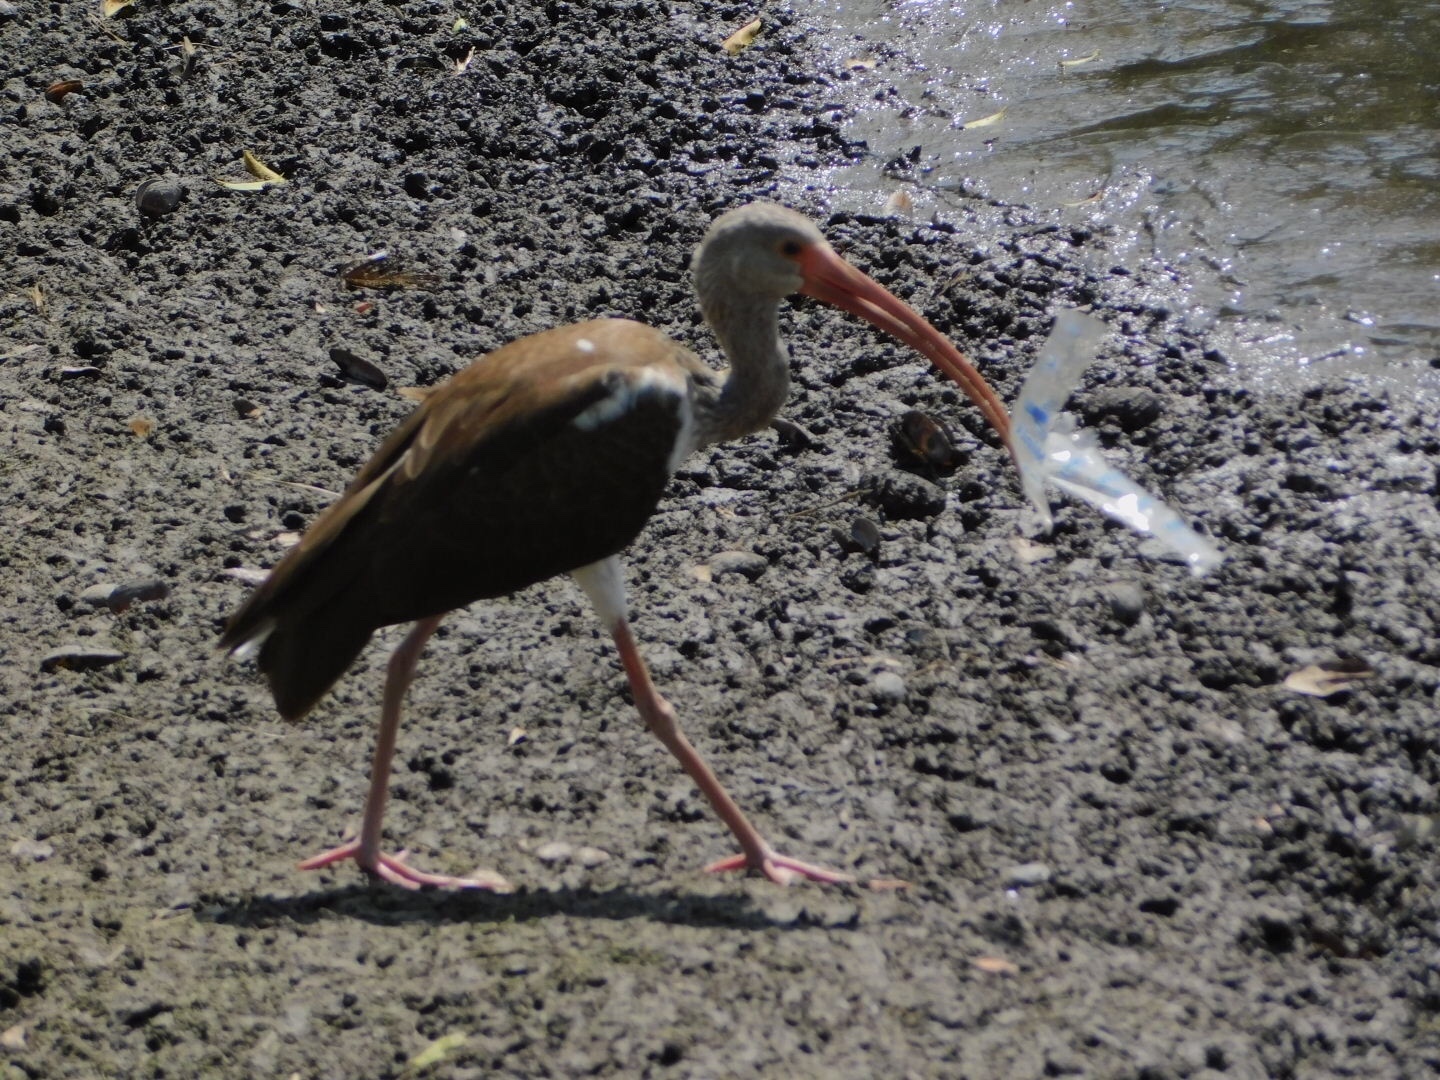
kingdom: Animalia
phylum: Chordata
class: Aves
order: Pelecaniformes
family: Threskiornithidae
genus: Eudocimus
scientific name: Eudocimus albus
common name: White ibis
